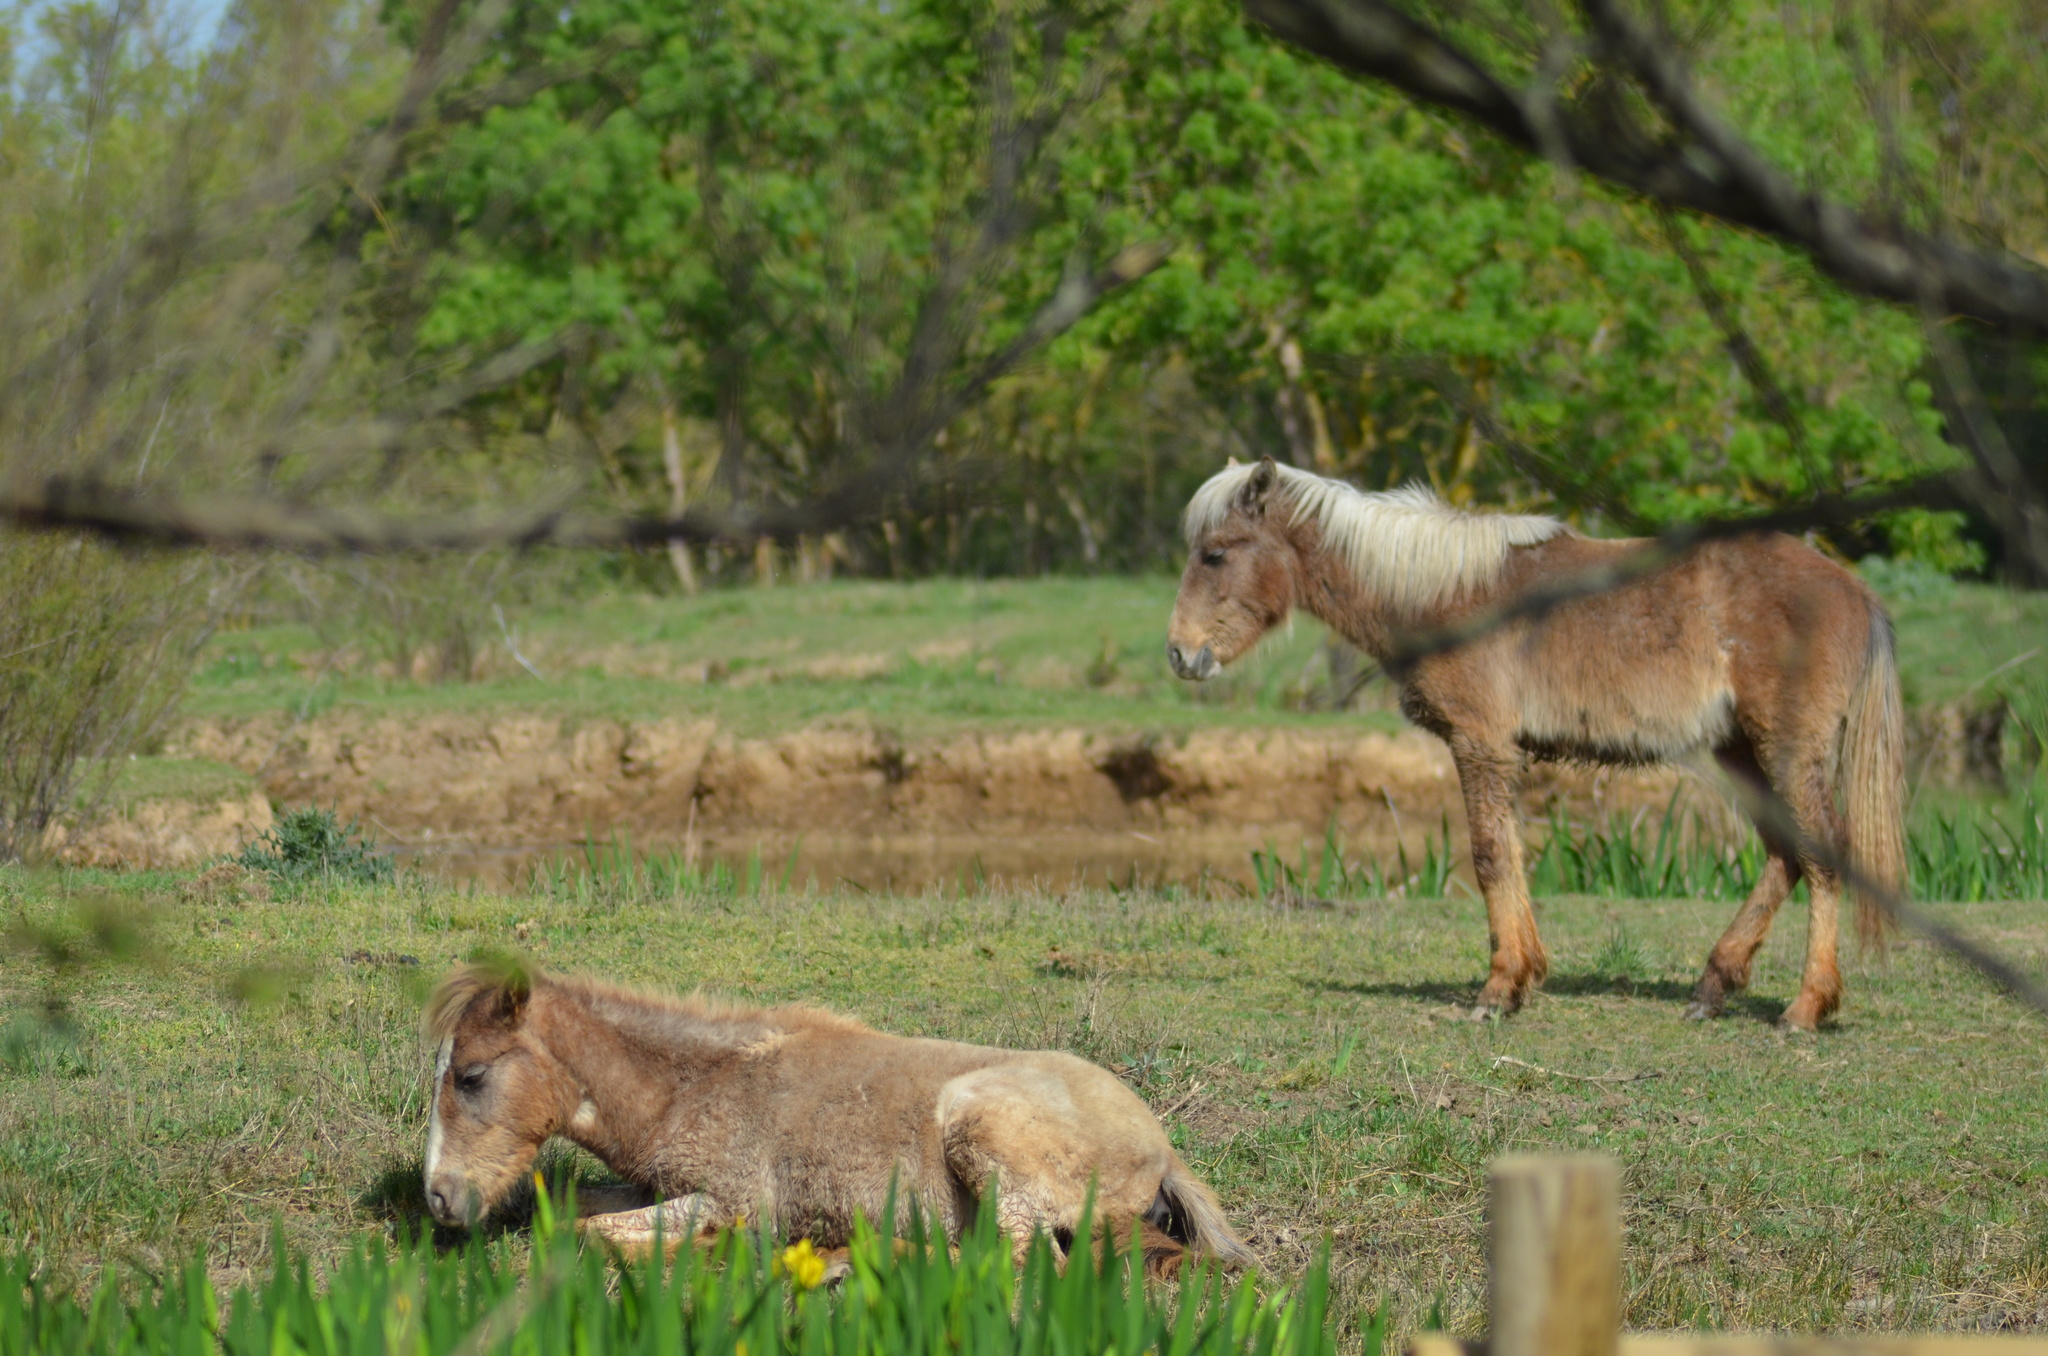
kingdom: Animalia
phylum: Chordata
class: Mammalia
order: Perissodactyla
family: Equidae
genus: Equus
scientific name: Equus caballus
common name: Horse
